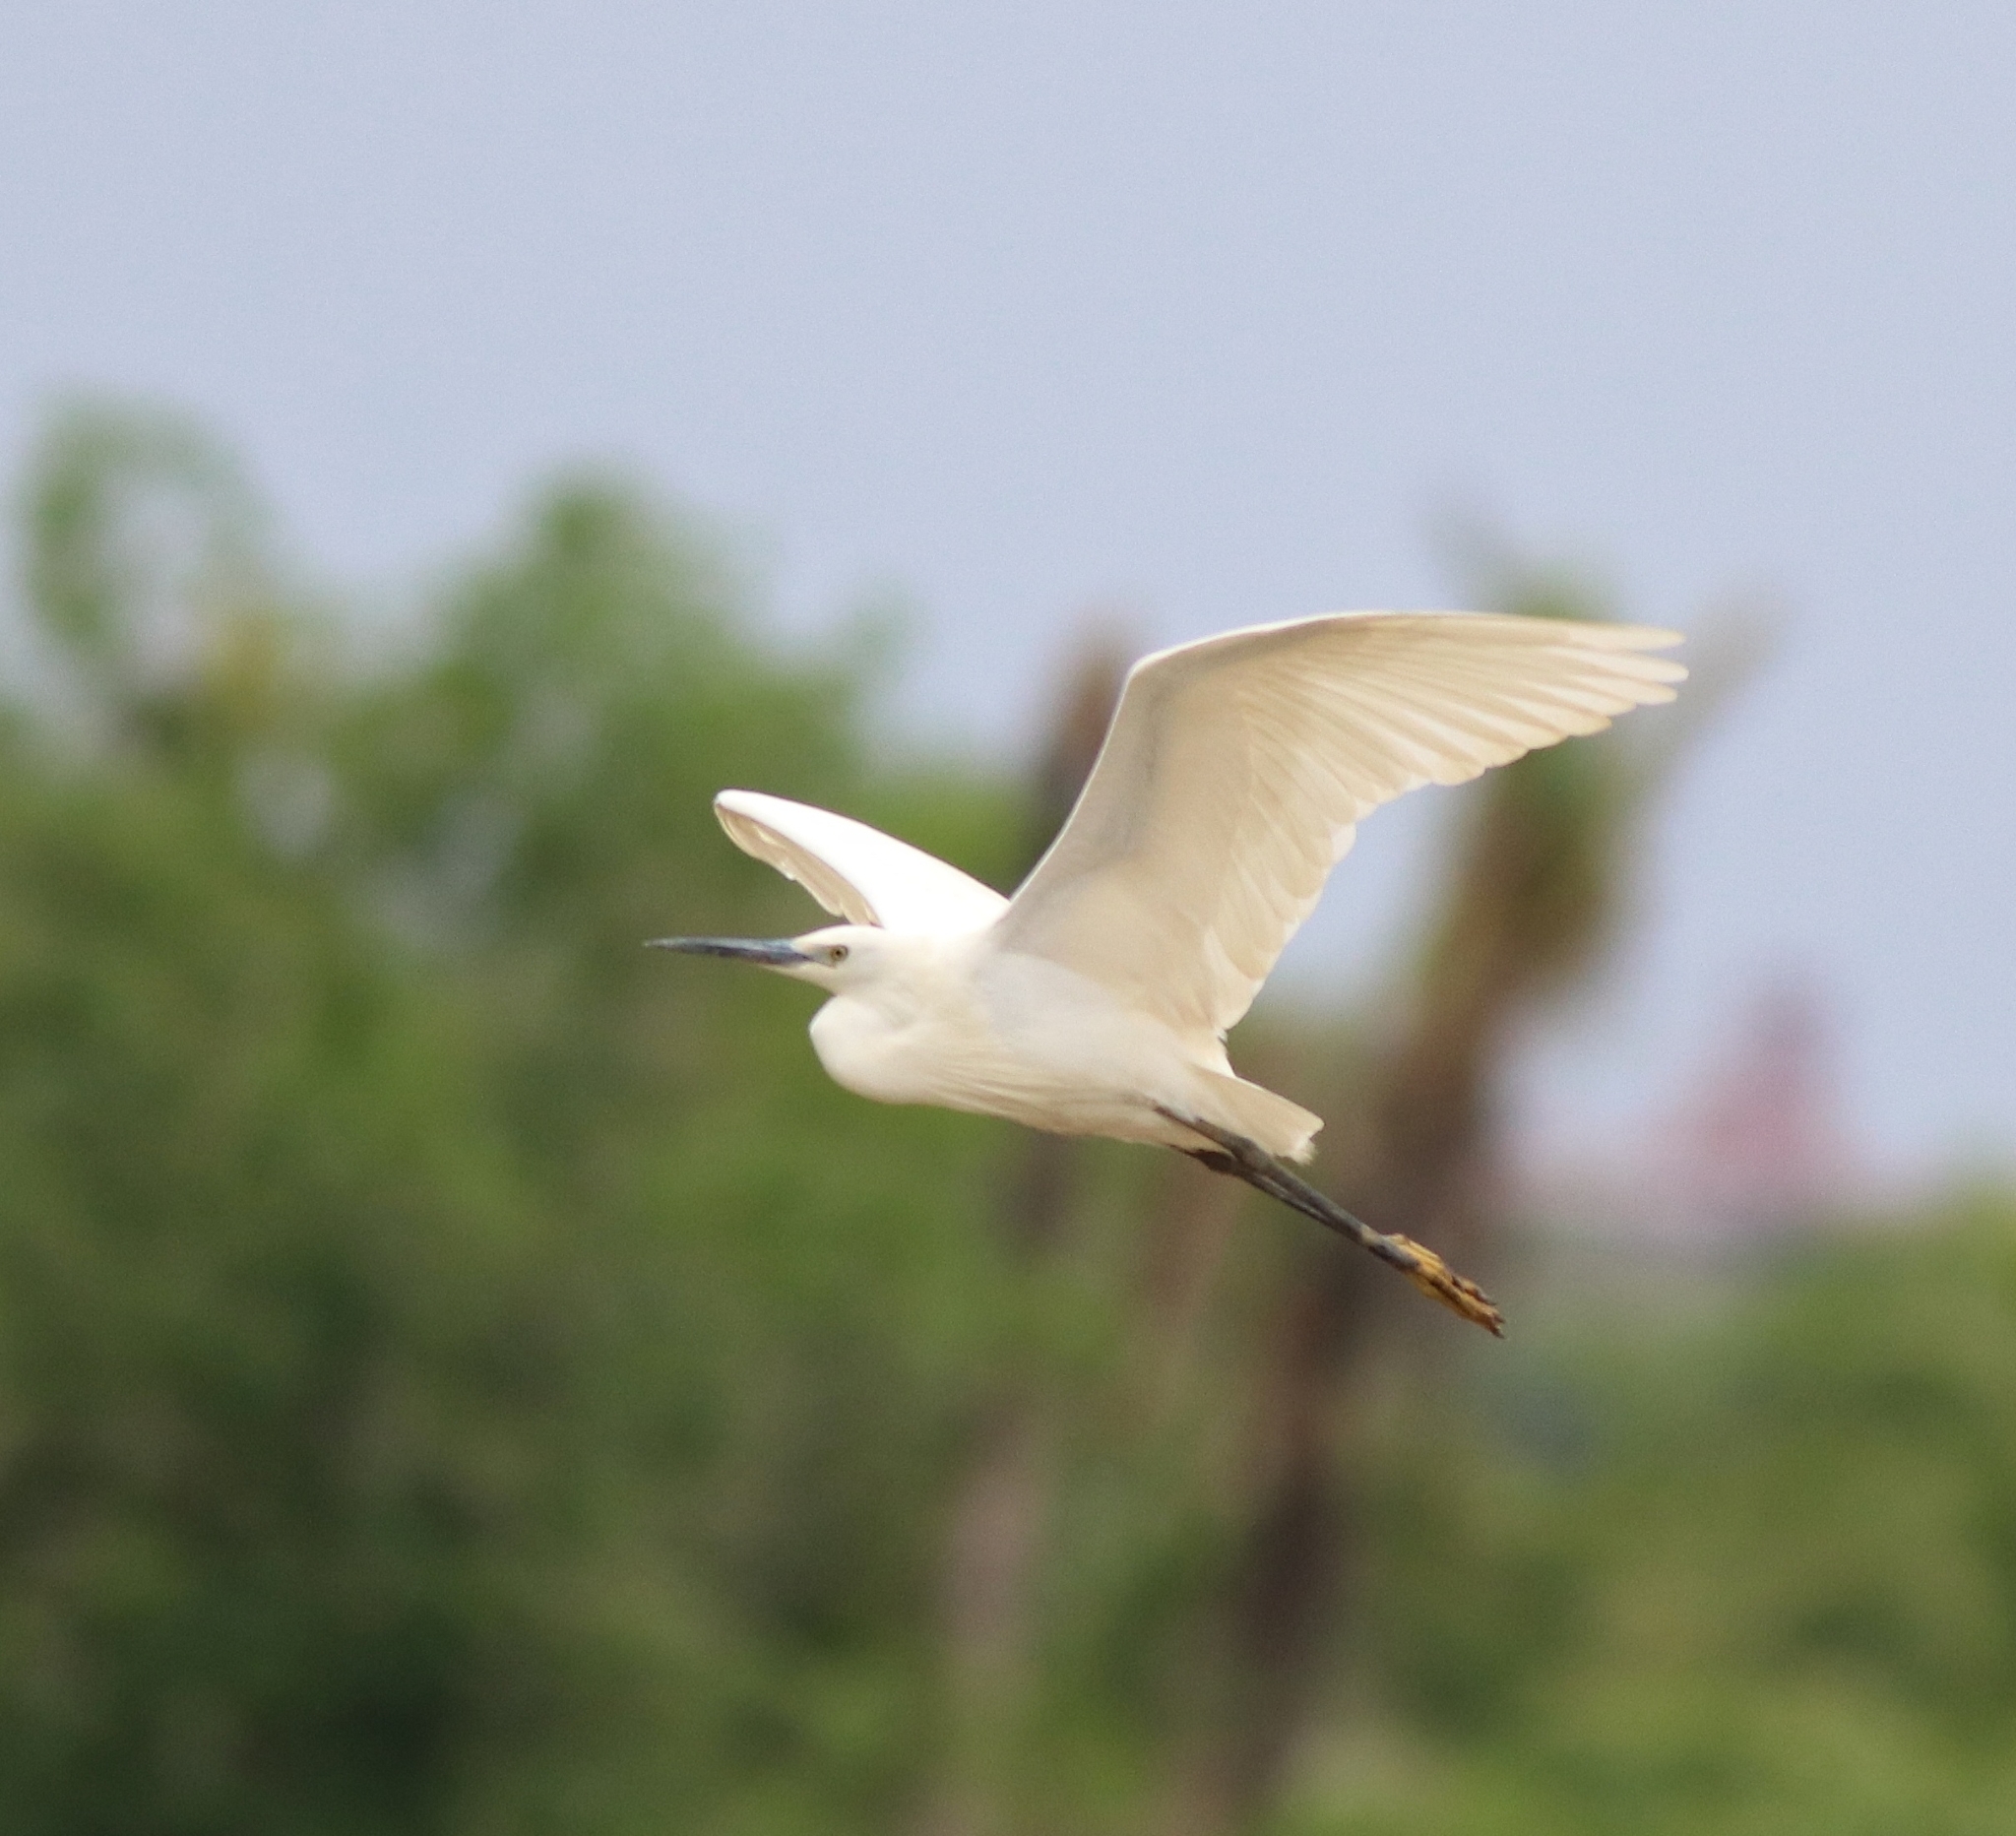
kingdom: Animalia
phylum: Chordata
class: Aves
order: Pelecaniformes
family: Ardeidae
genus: Egretta
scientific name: Egretta garzetta
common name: Little egret
